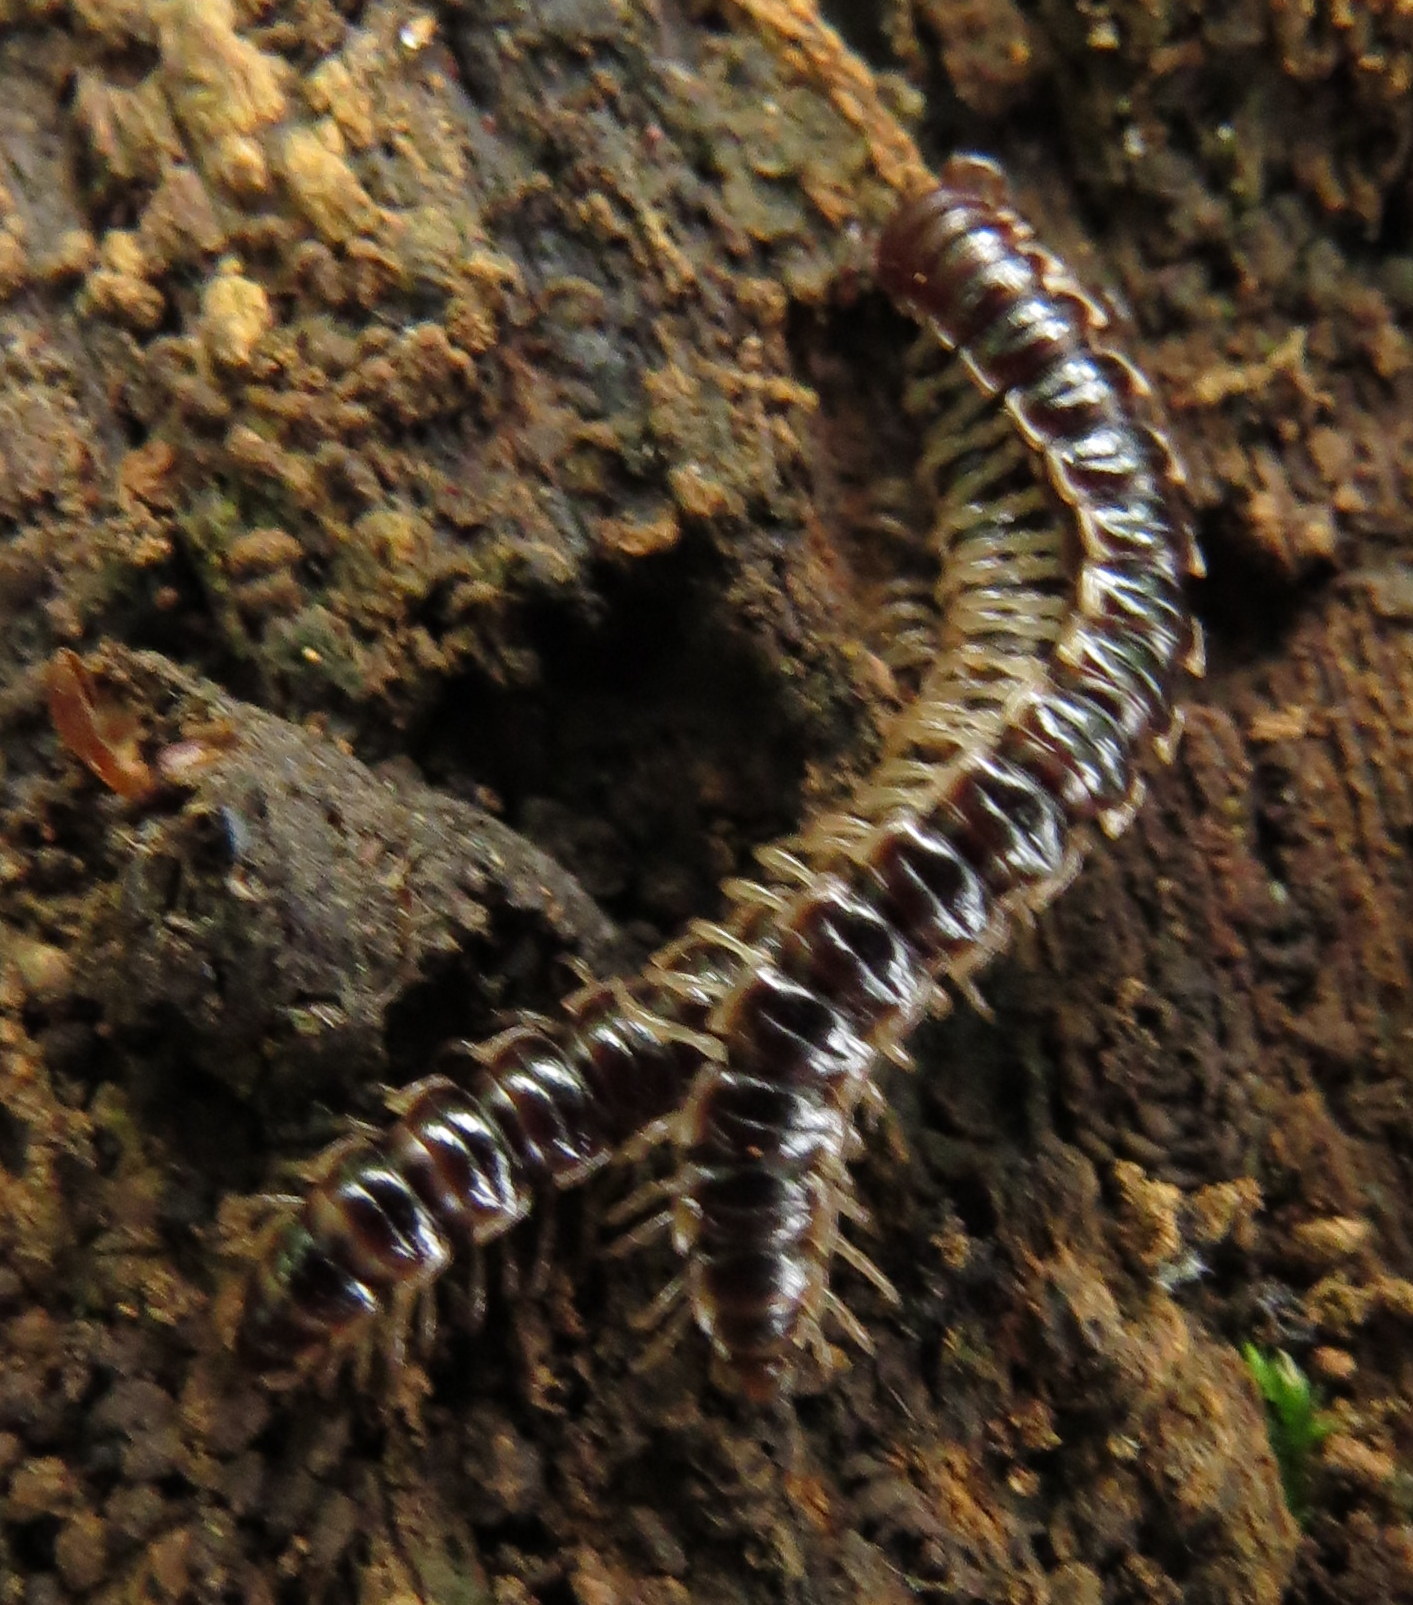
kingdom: Animalia
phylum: Arthropoda
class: Diplopoda
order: Polydesmida
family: Paradoxosomatidae
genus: Oxidus
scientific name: Oxidus gracilis
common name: Greenhouse millipede
